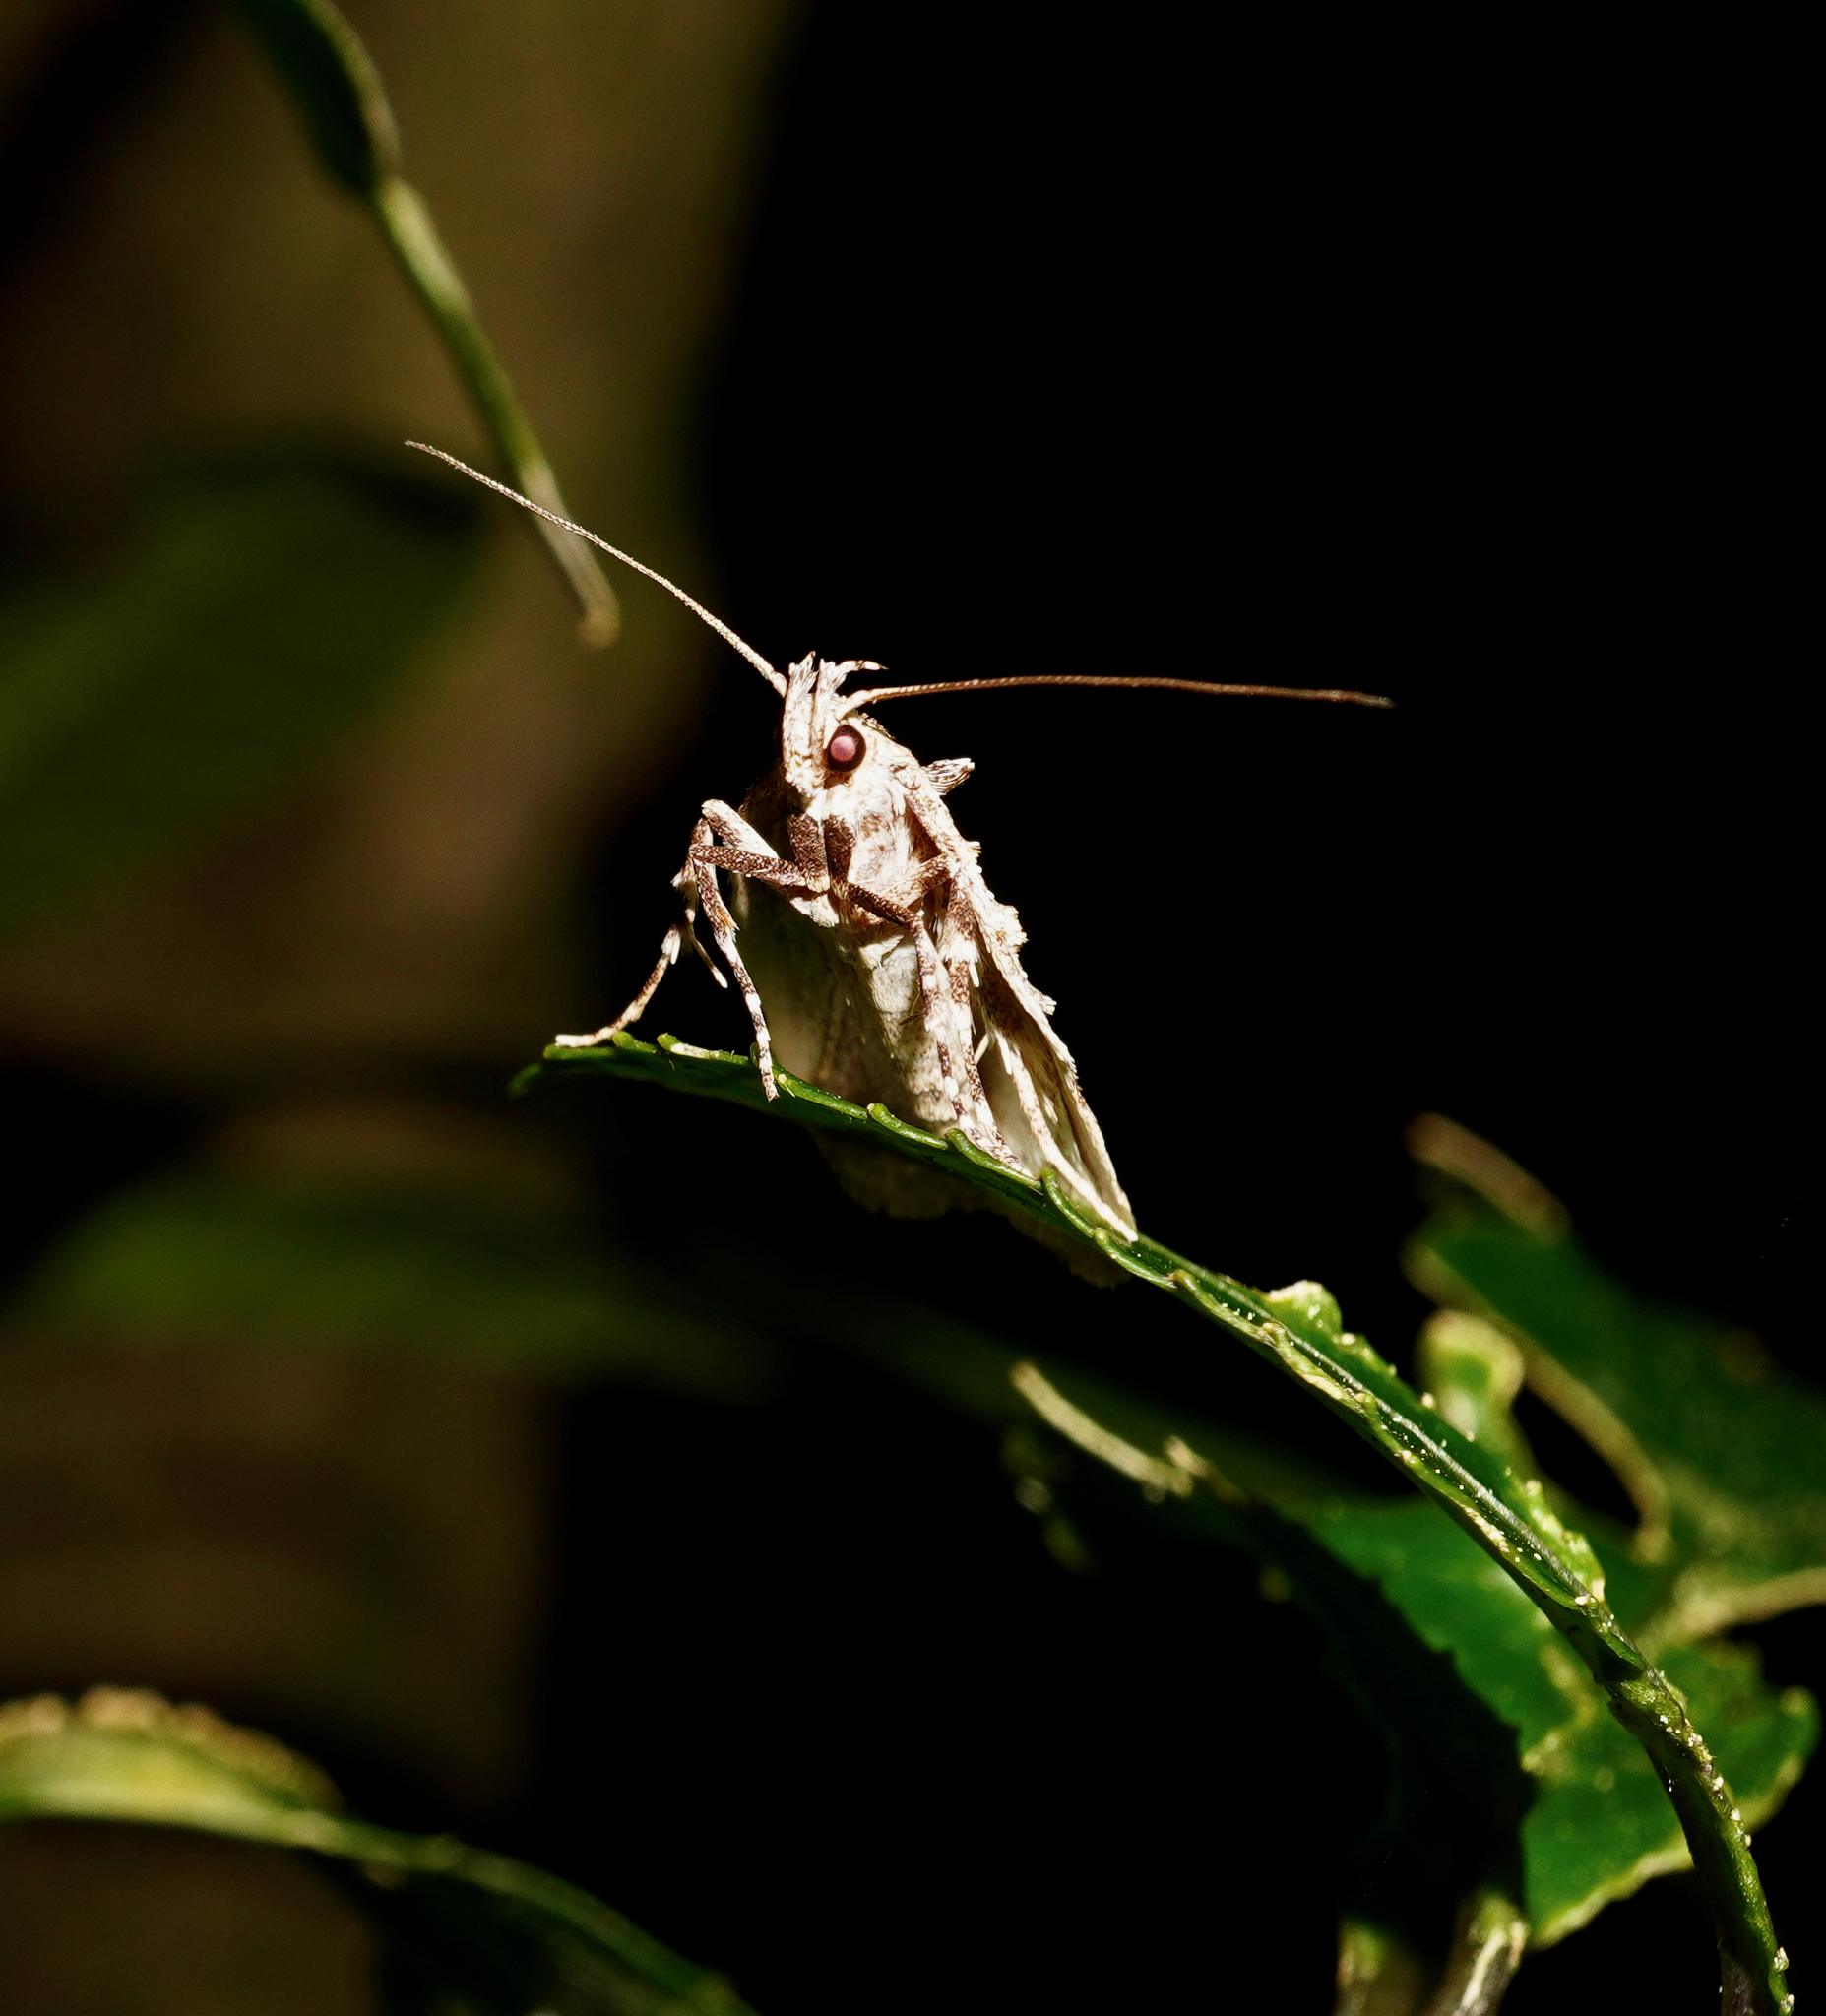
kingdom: Animalia
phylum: Arthropoda
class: Insecta
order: Lepidoptera
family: Oecophoridae
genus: Izatha
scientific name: Izatha attactella
